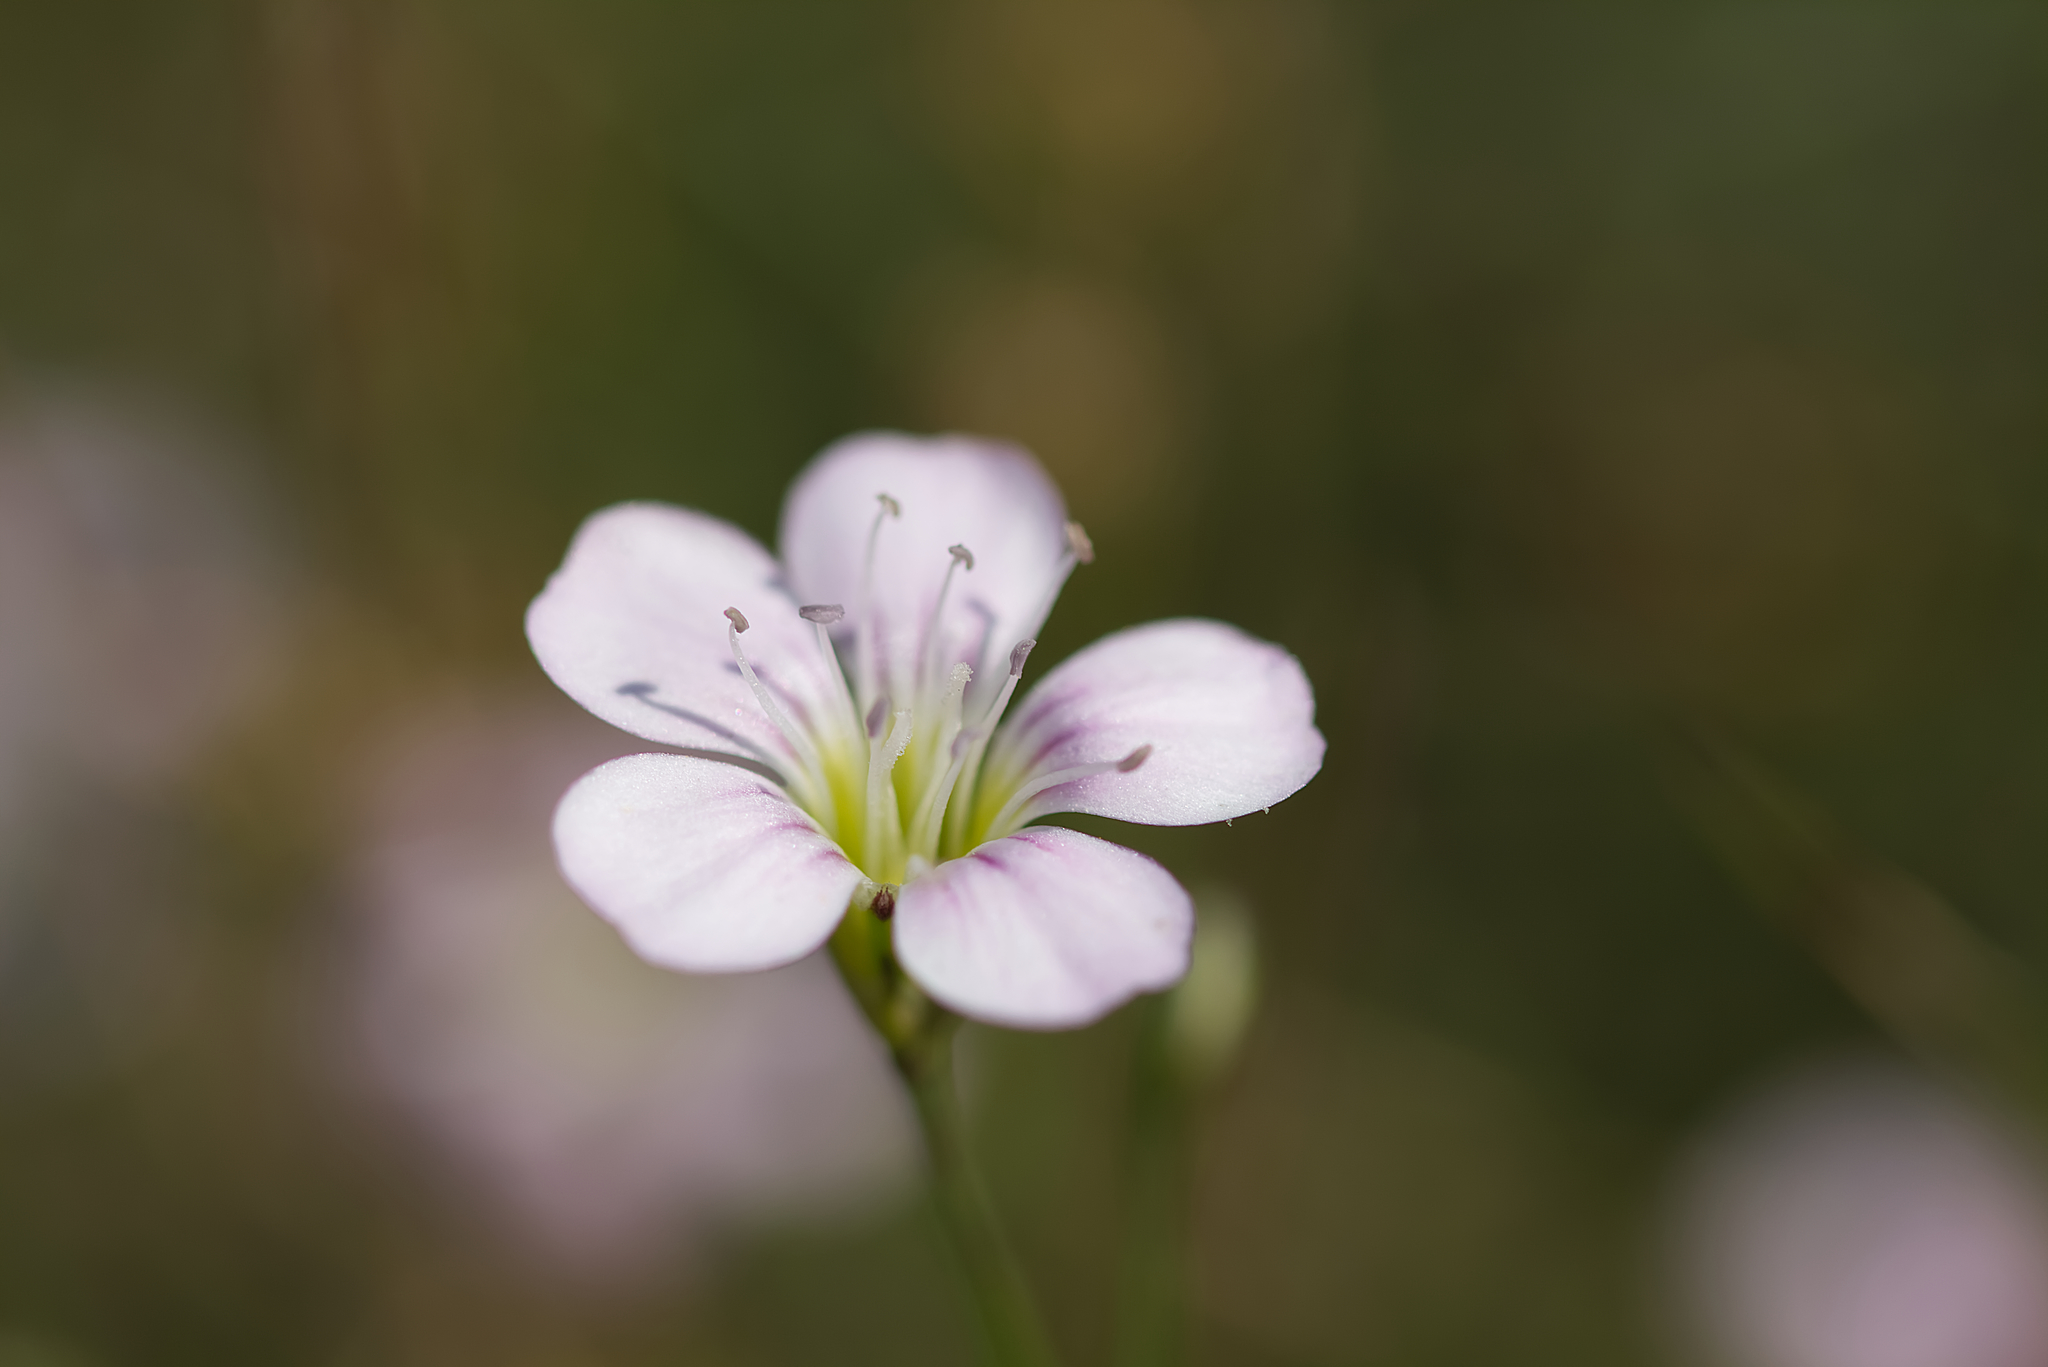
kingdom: Plantae
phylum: Tracheophyta
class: Magnoliopsida
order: Caryophyllales
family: Caryophyllaceae
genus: Petrorhagia
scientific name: Petrorhagia saxifraga
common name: Tunicflower
